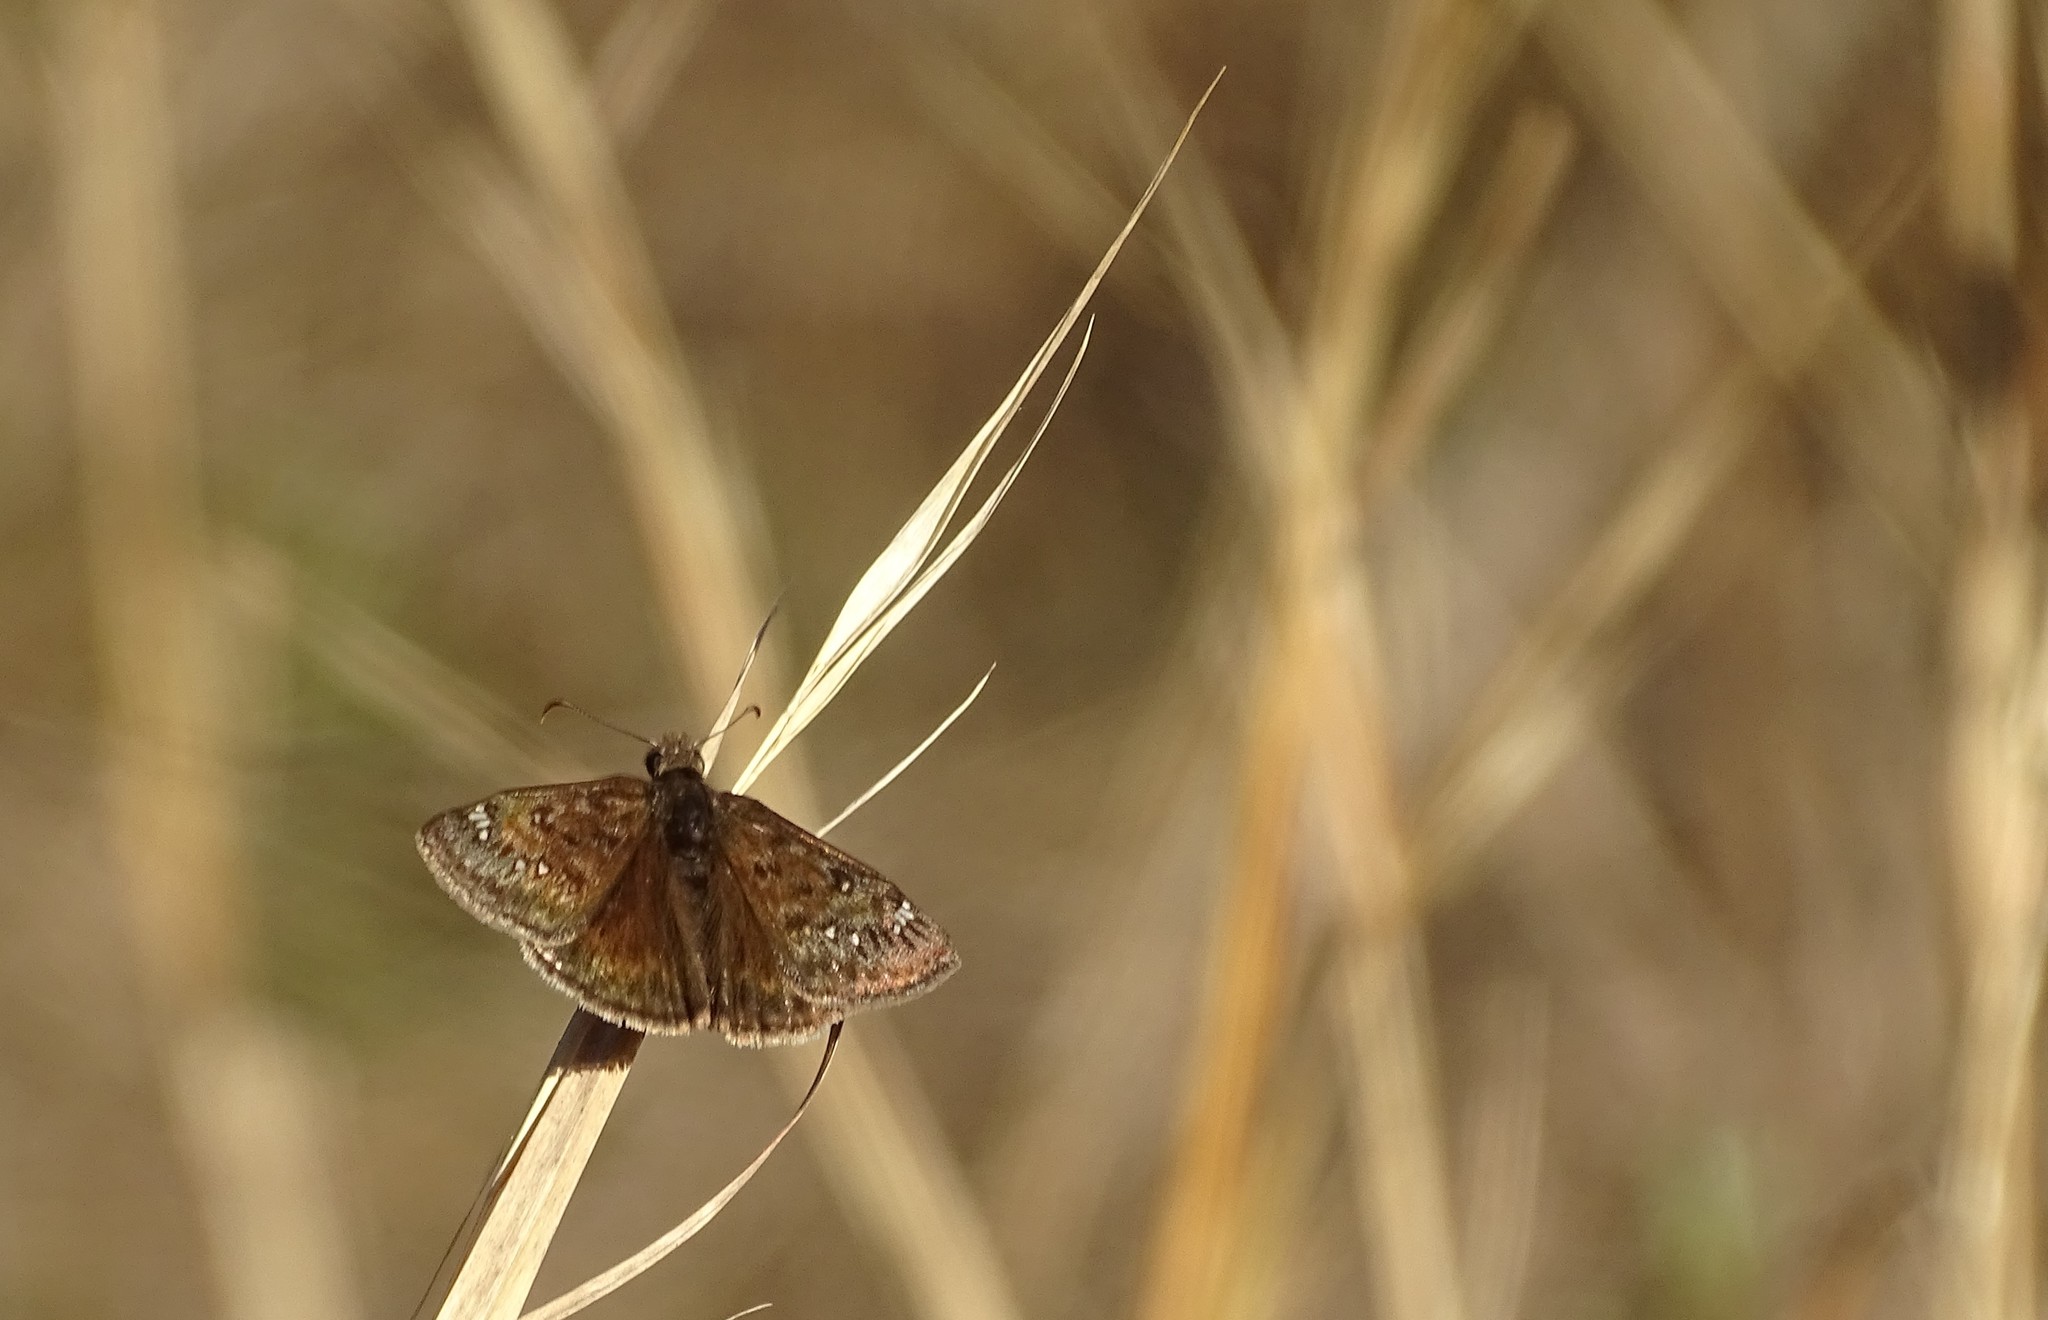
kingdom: Animalia
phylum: Arthropoda
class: Insecta
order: Lepidoptera
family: Hesperiidae
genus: Erynnis
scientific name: Erynnis juvenalis
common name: Juvenal's duskywing
